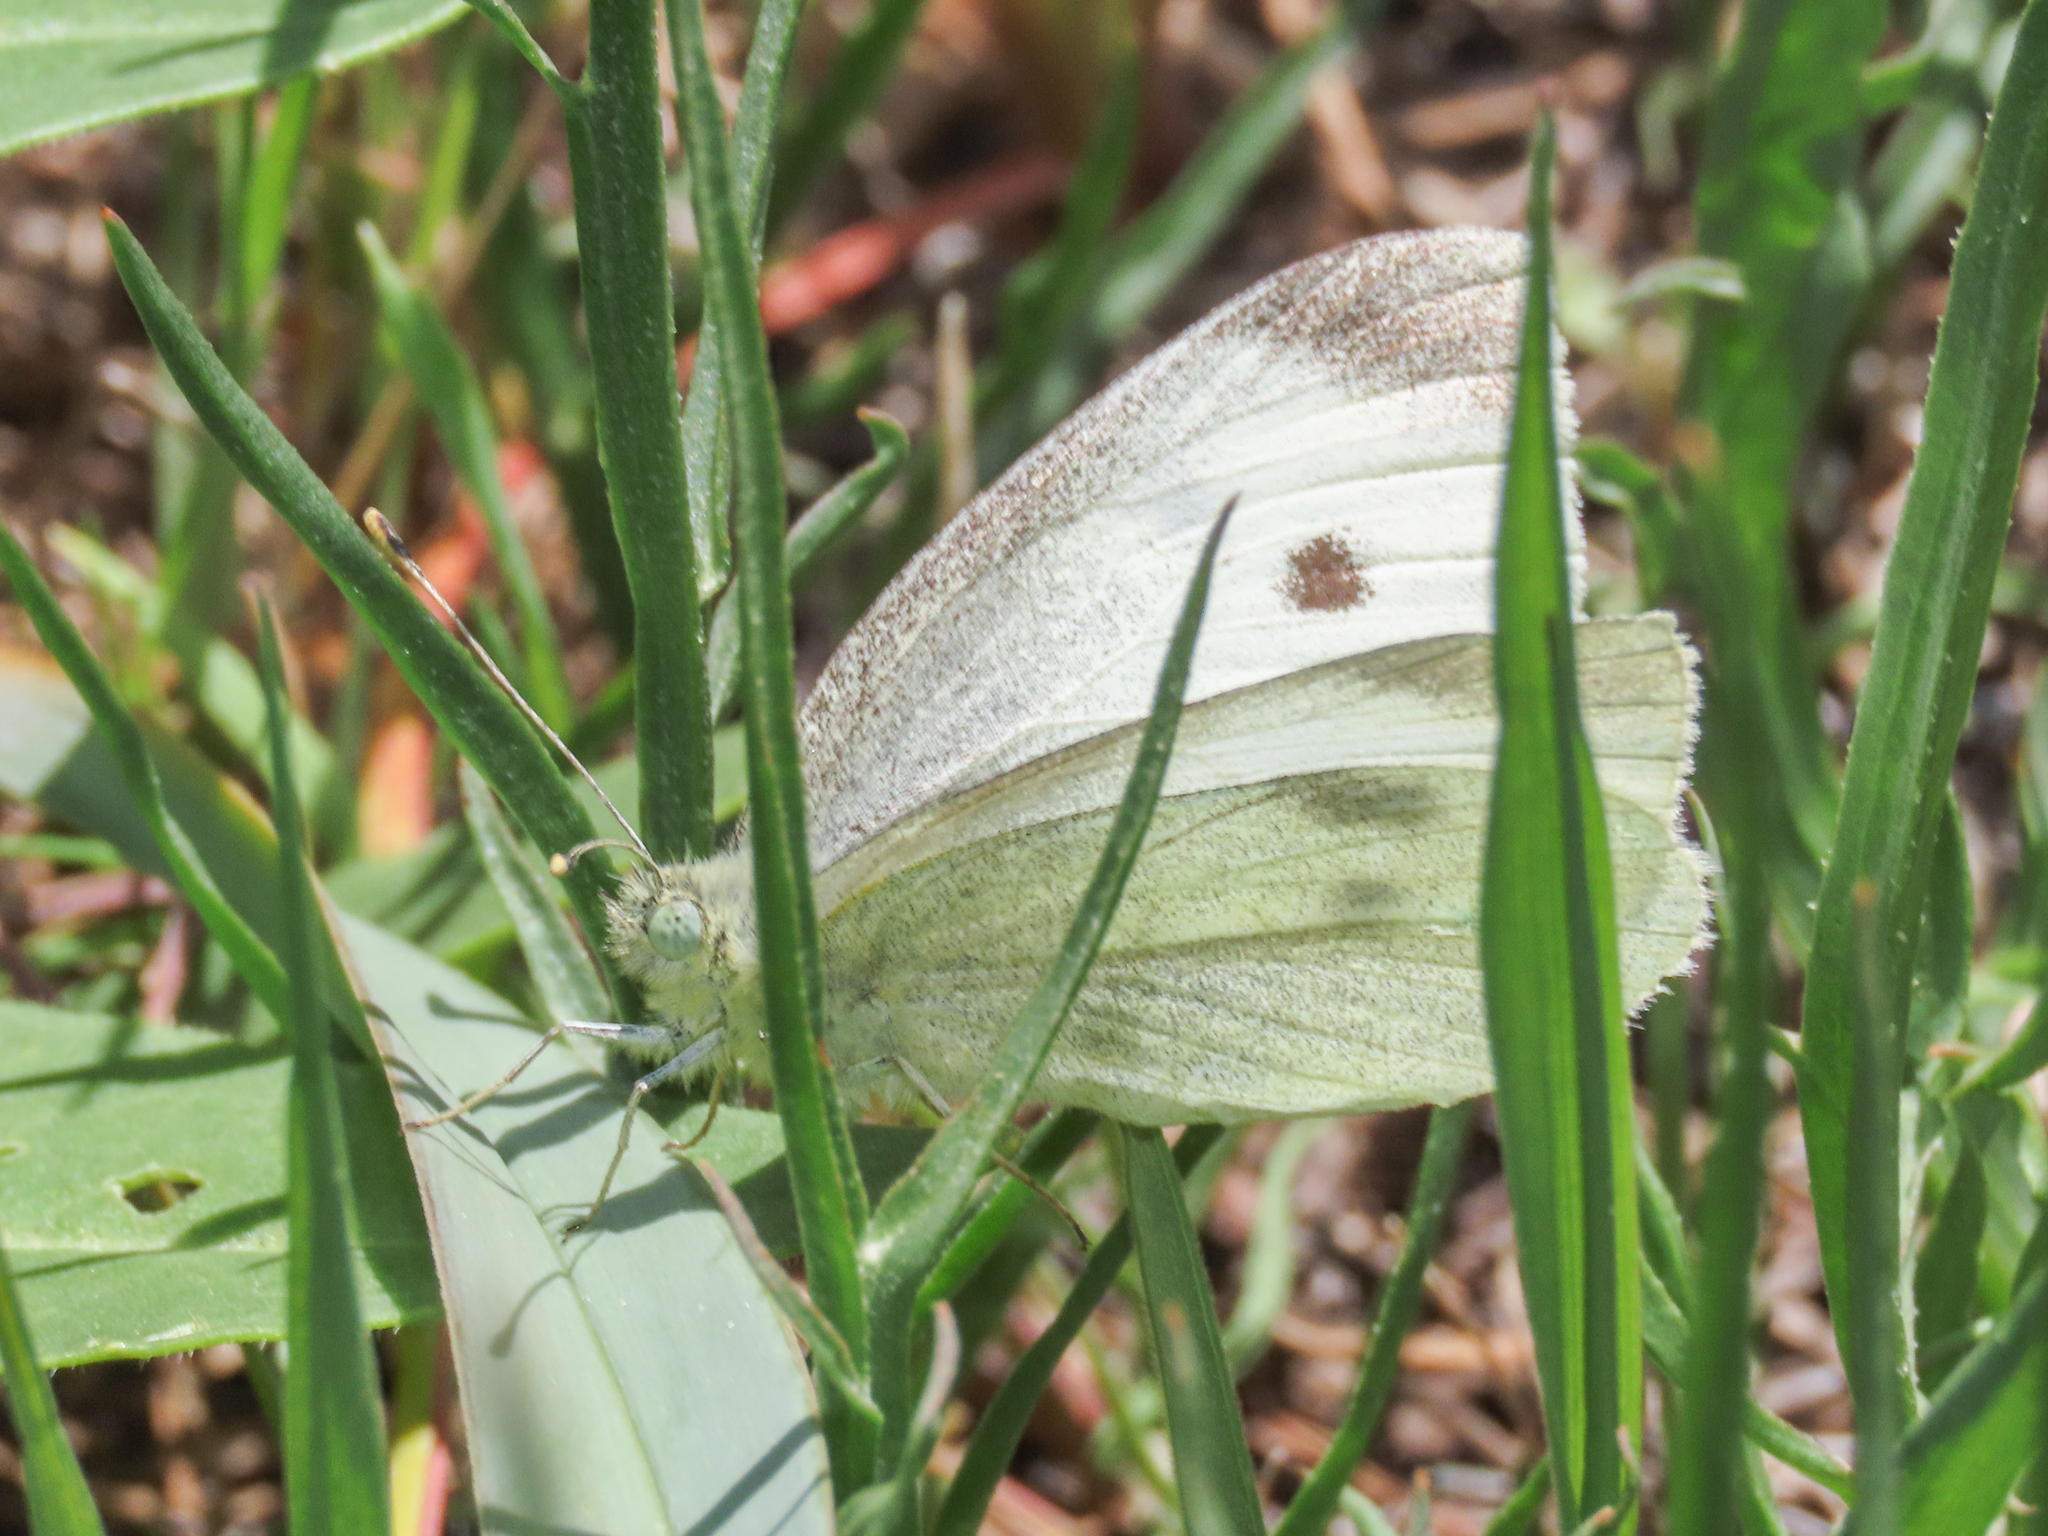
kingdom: Animalia
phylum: Arthropoda
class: Insecta
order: Lepidoptera
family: Pieridae
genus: Pieris
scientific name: Pieris rapae
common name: Small white
